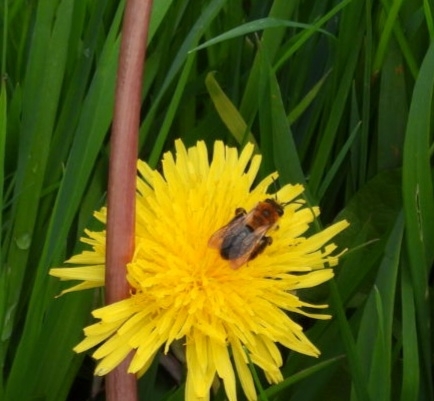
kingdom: Animalia
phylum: Arthropoda
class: Insecta
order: Hymenoptera
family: Andrenidae
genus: Andrena
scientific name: Andrena nitida
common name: Grey-patched mining bee
